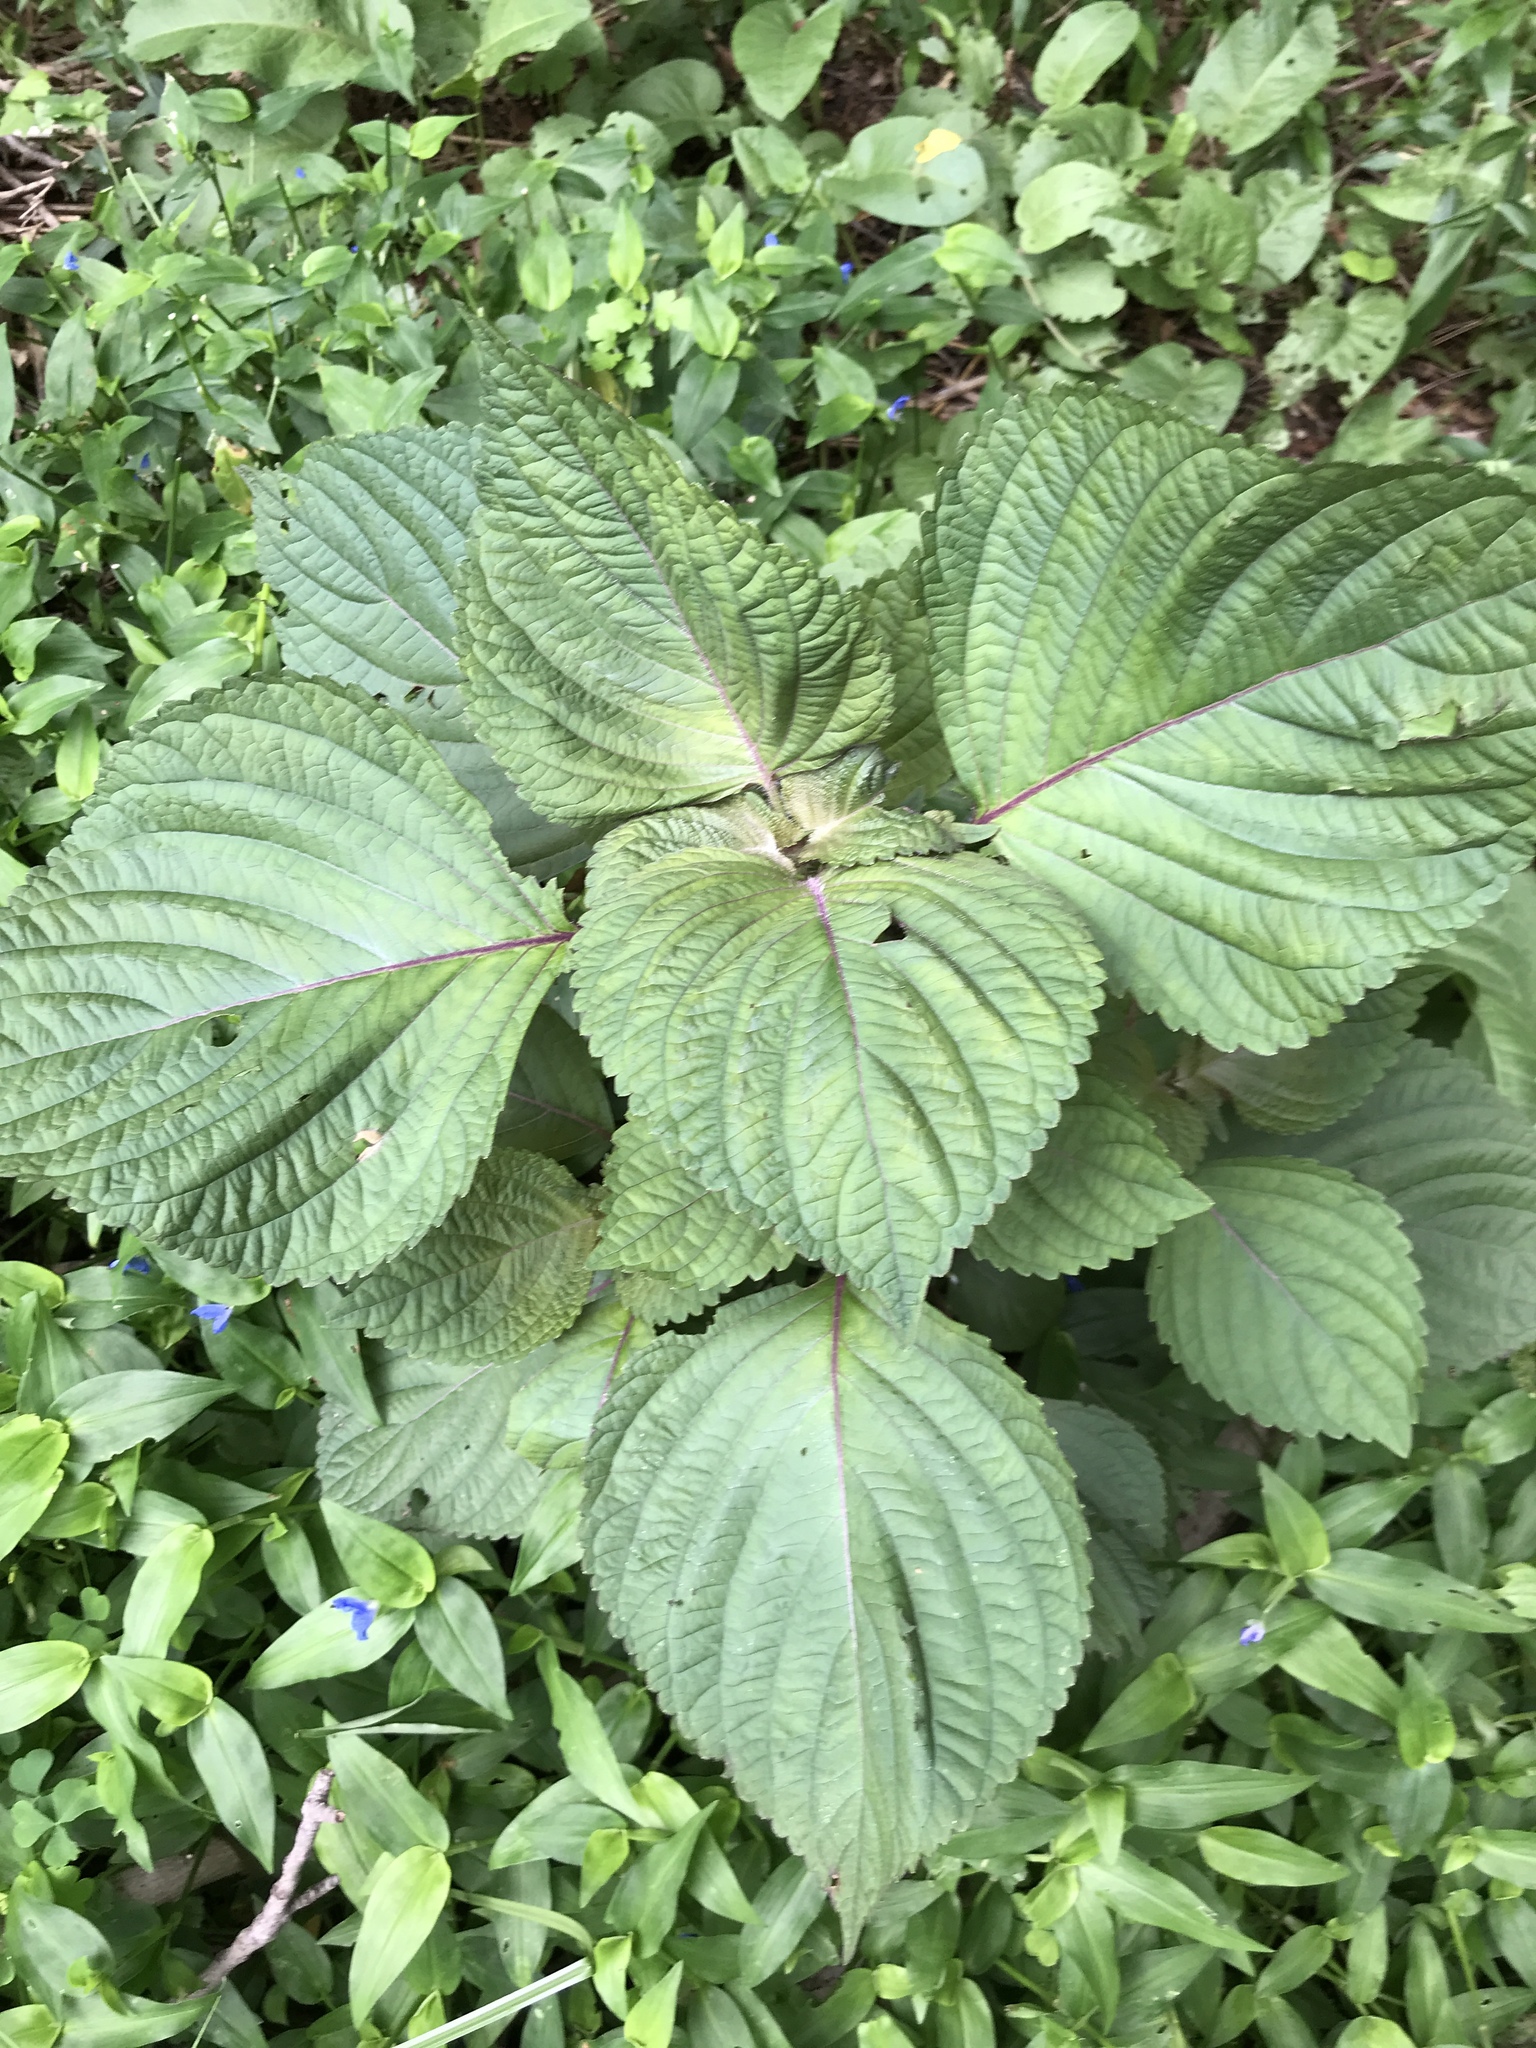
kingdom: Plantae
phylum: Tracheophyta
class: Magnoliopsida
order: Lamiales
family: Lamiaceae
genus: Perilla
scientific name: Perilla frutescens
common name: Perilla
